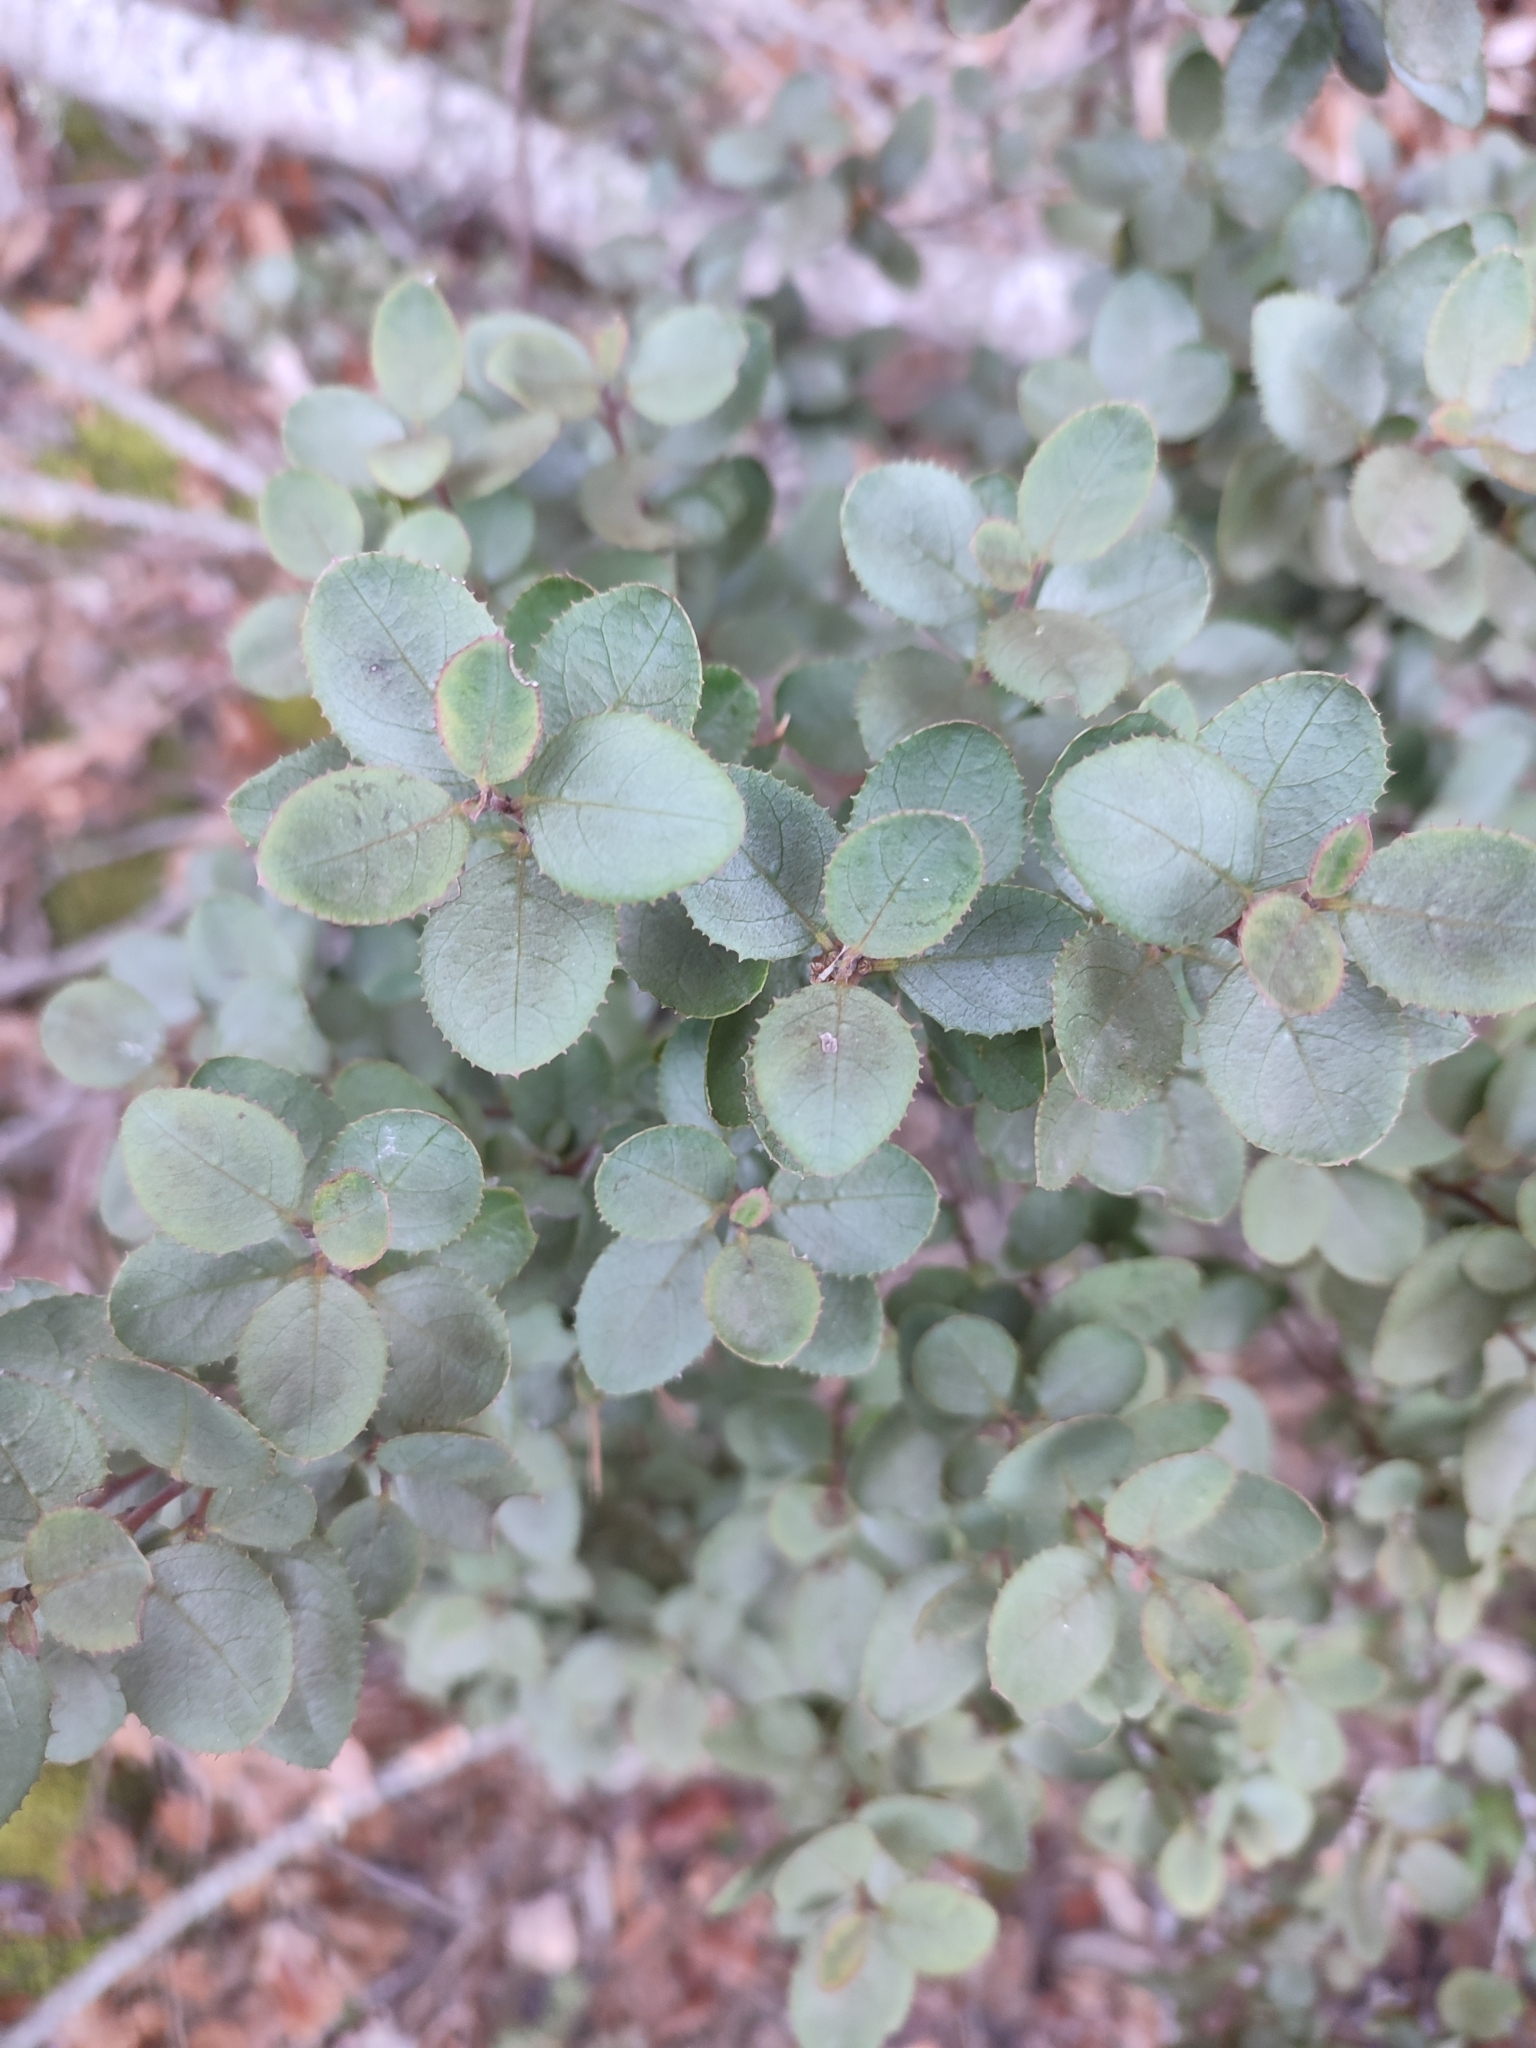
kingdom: Plantae
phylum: Tracheophyta
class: Magnoliopsida
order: Rosales
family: Rhamnaceae
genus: Rhamnus
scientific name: Rhamnus ludovici-salvatoris
